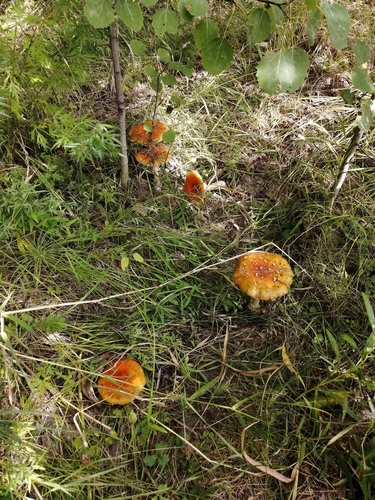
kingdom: Fungi
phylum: Basidiomycota
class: Agaricomycetes
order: Agaricales
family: Amanitaceae
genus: Amanita
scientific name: Amanita muscaria
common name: Fly agaric
